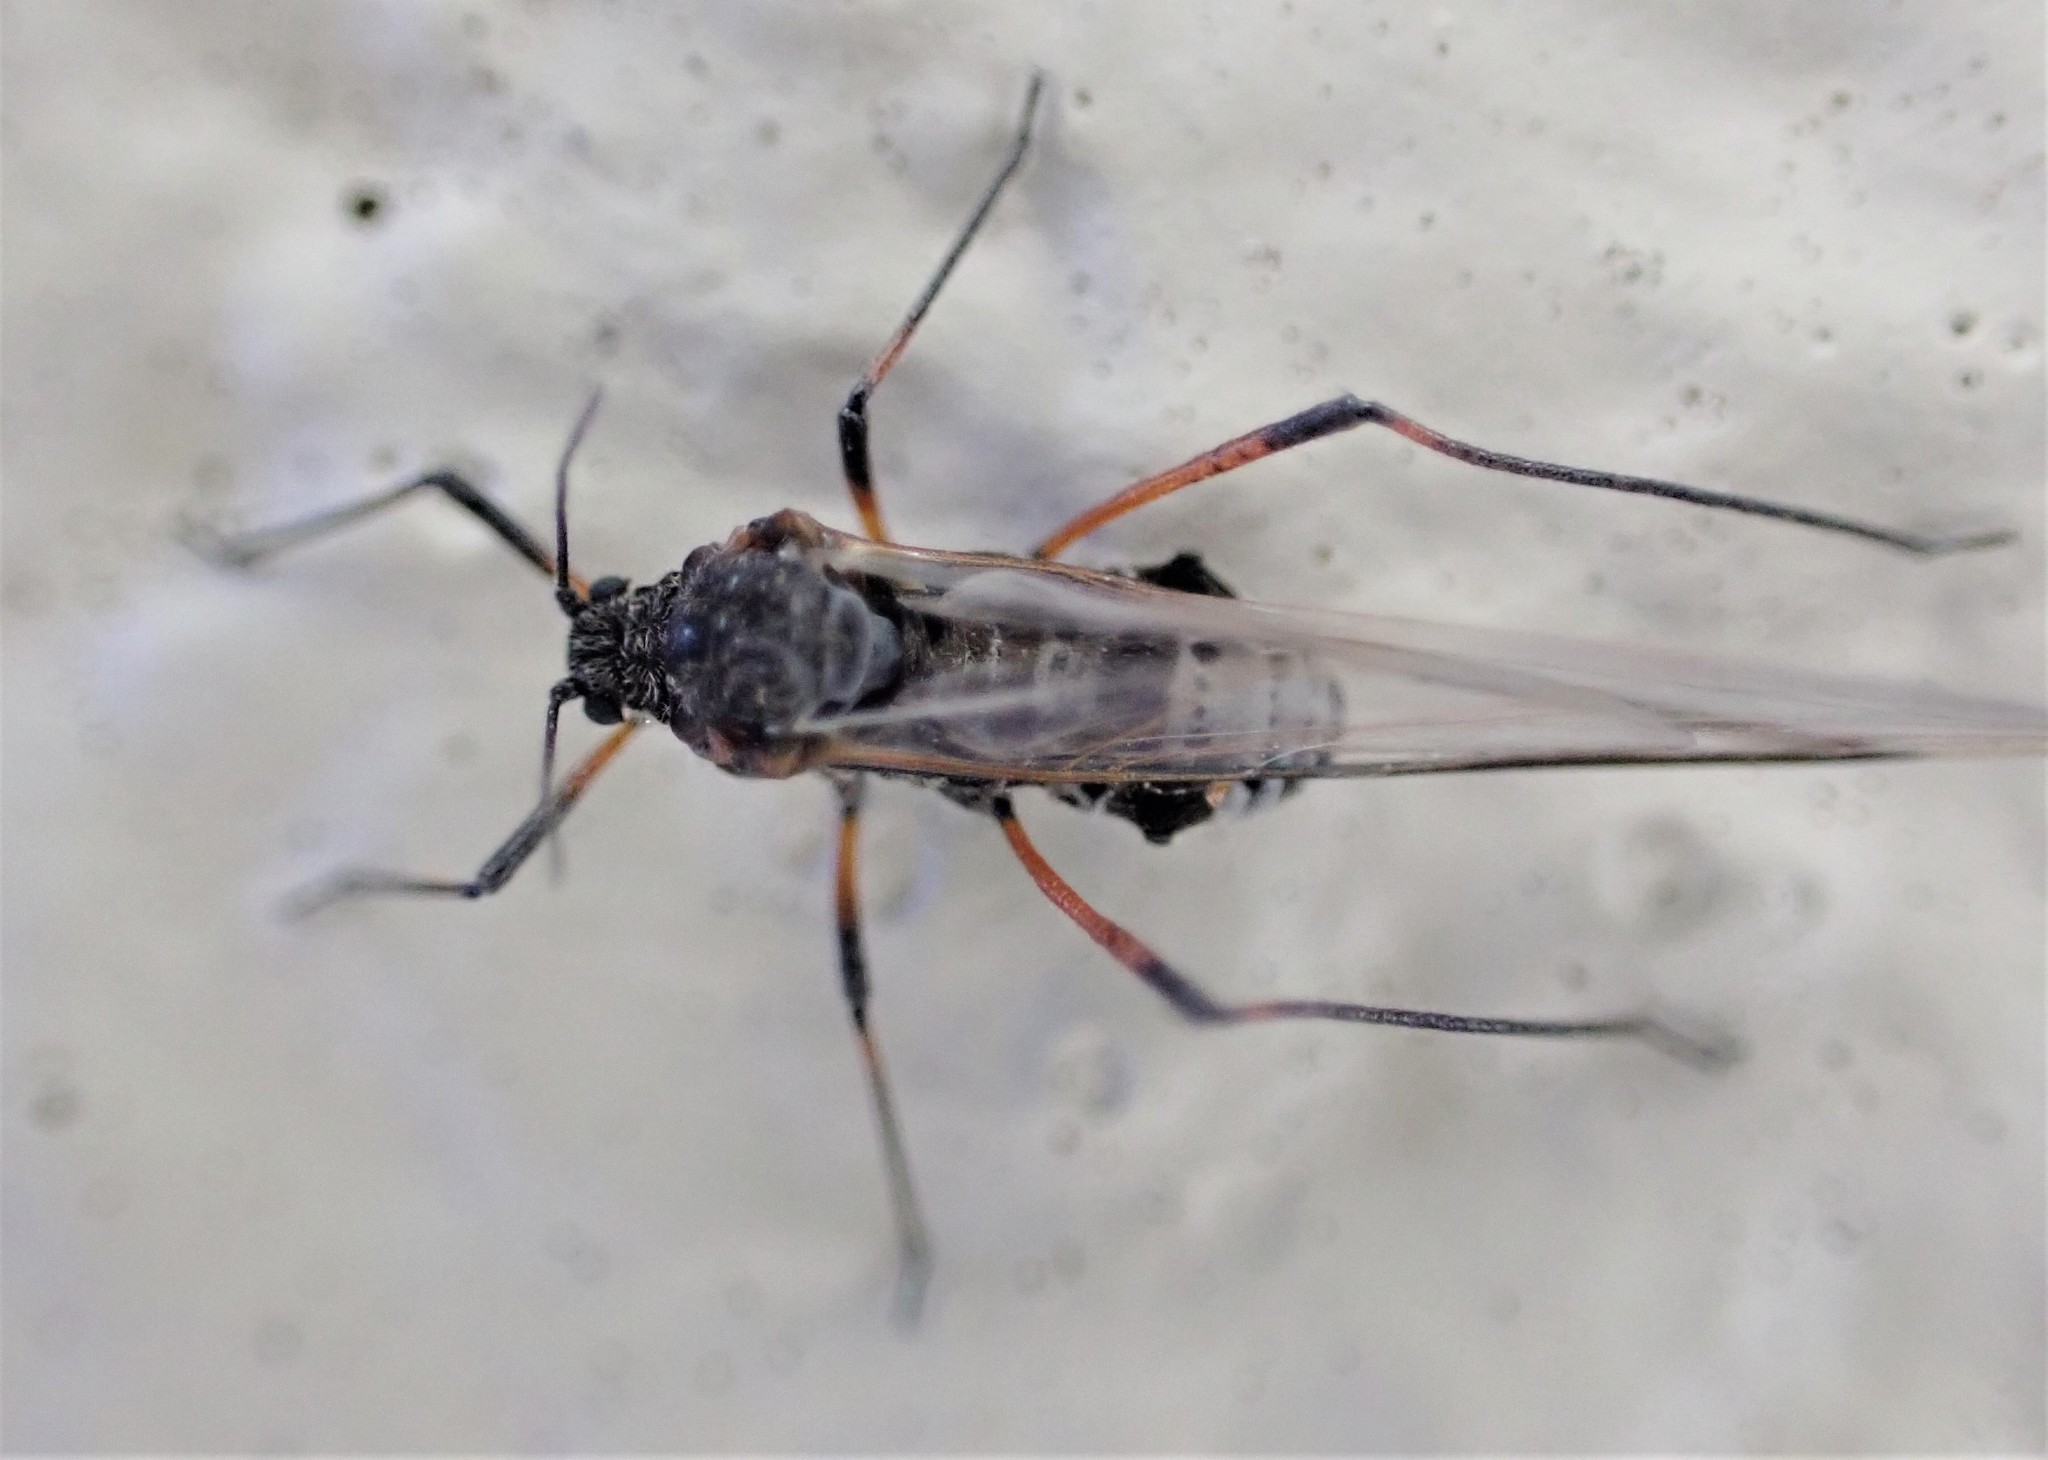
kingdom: Animalia
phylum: Arthropoda
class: Insecta
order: Hemiptera
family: Aphididae
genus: Tuberolachnus
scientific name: Tuberolachnus salignus
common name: Giant willow aphid
